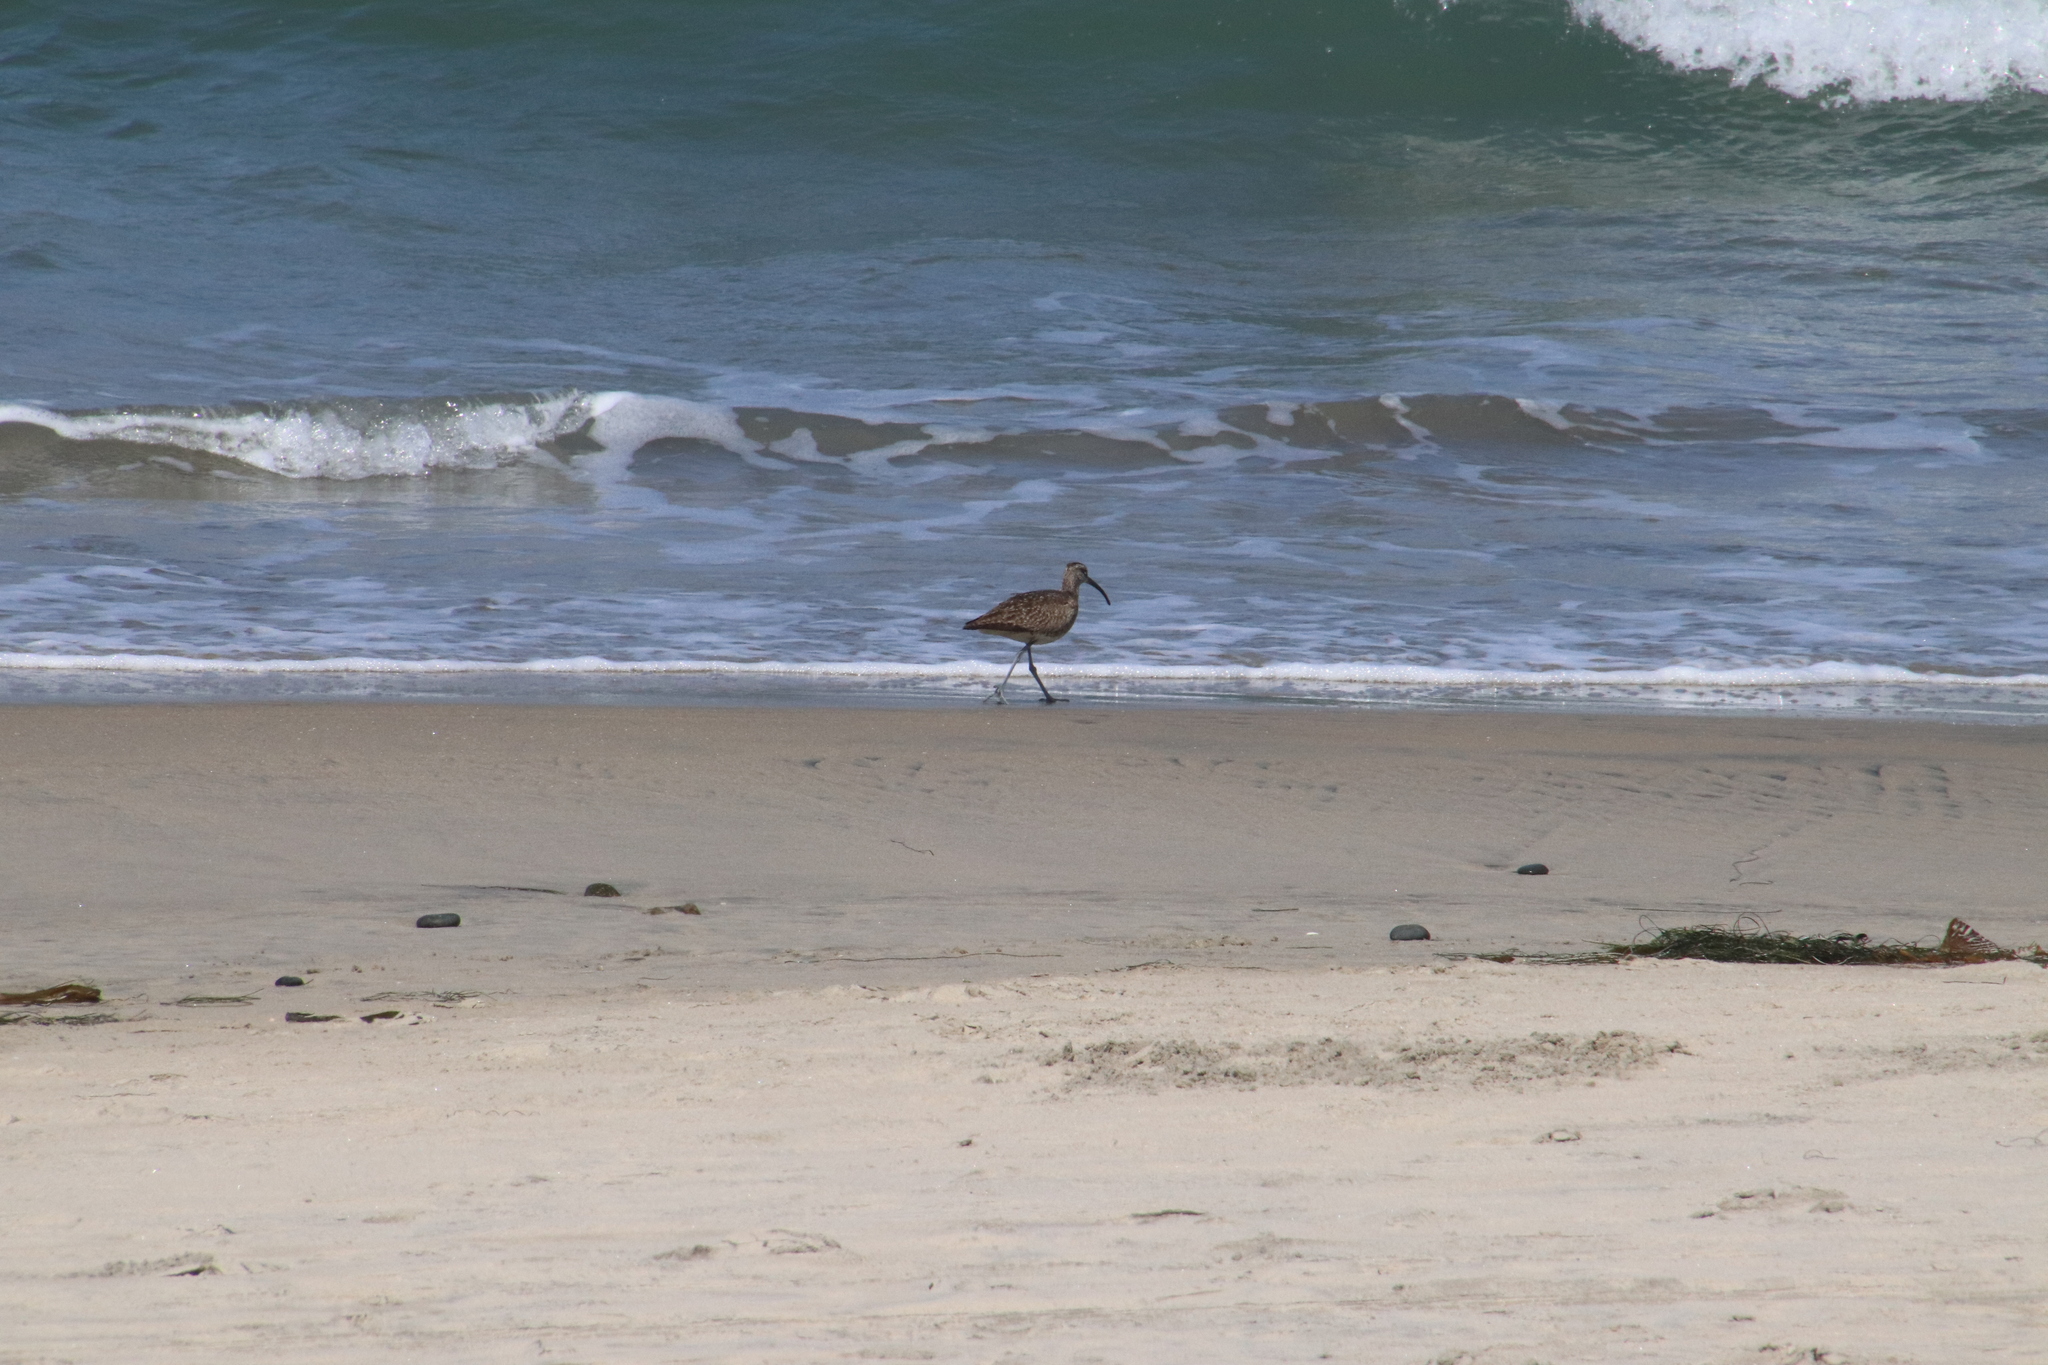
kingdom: Animalia
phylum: Chordata
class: Aves
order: Charadriiformes
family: Scolopacidae
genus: Numenius
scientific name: Numenius phaeopus
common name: Whimbrel
